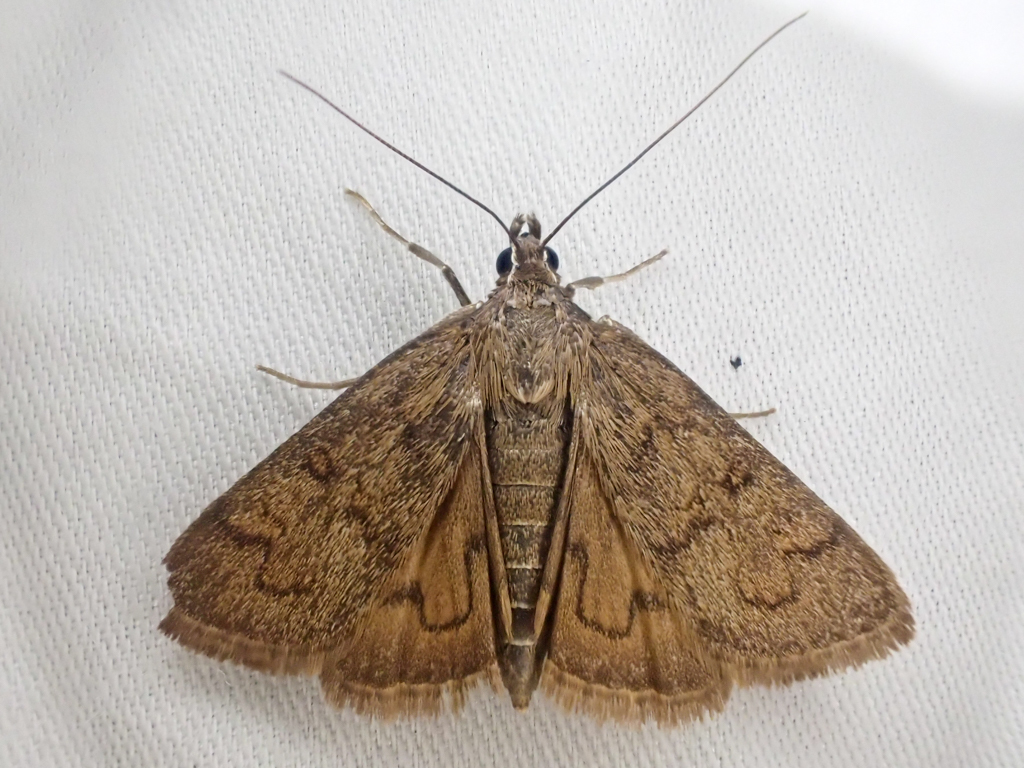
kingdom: Animalia
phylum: Arthropoda
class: Insecta
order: Lepidoptera
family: Crambidae
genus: Diastictis
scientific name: Diastictis caecalis
